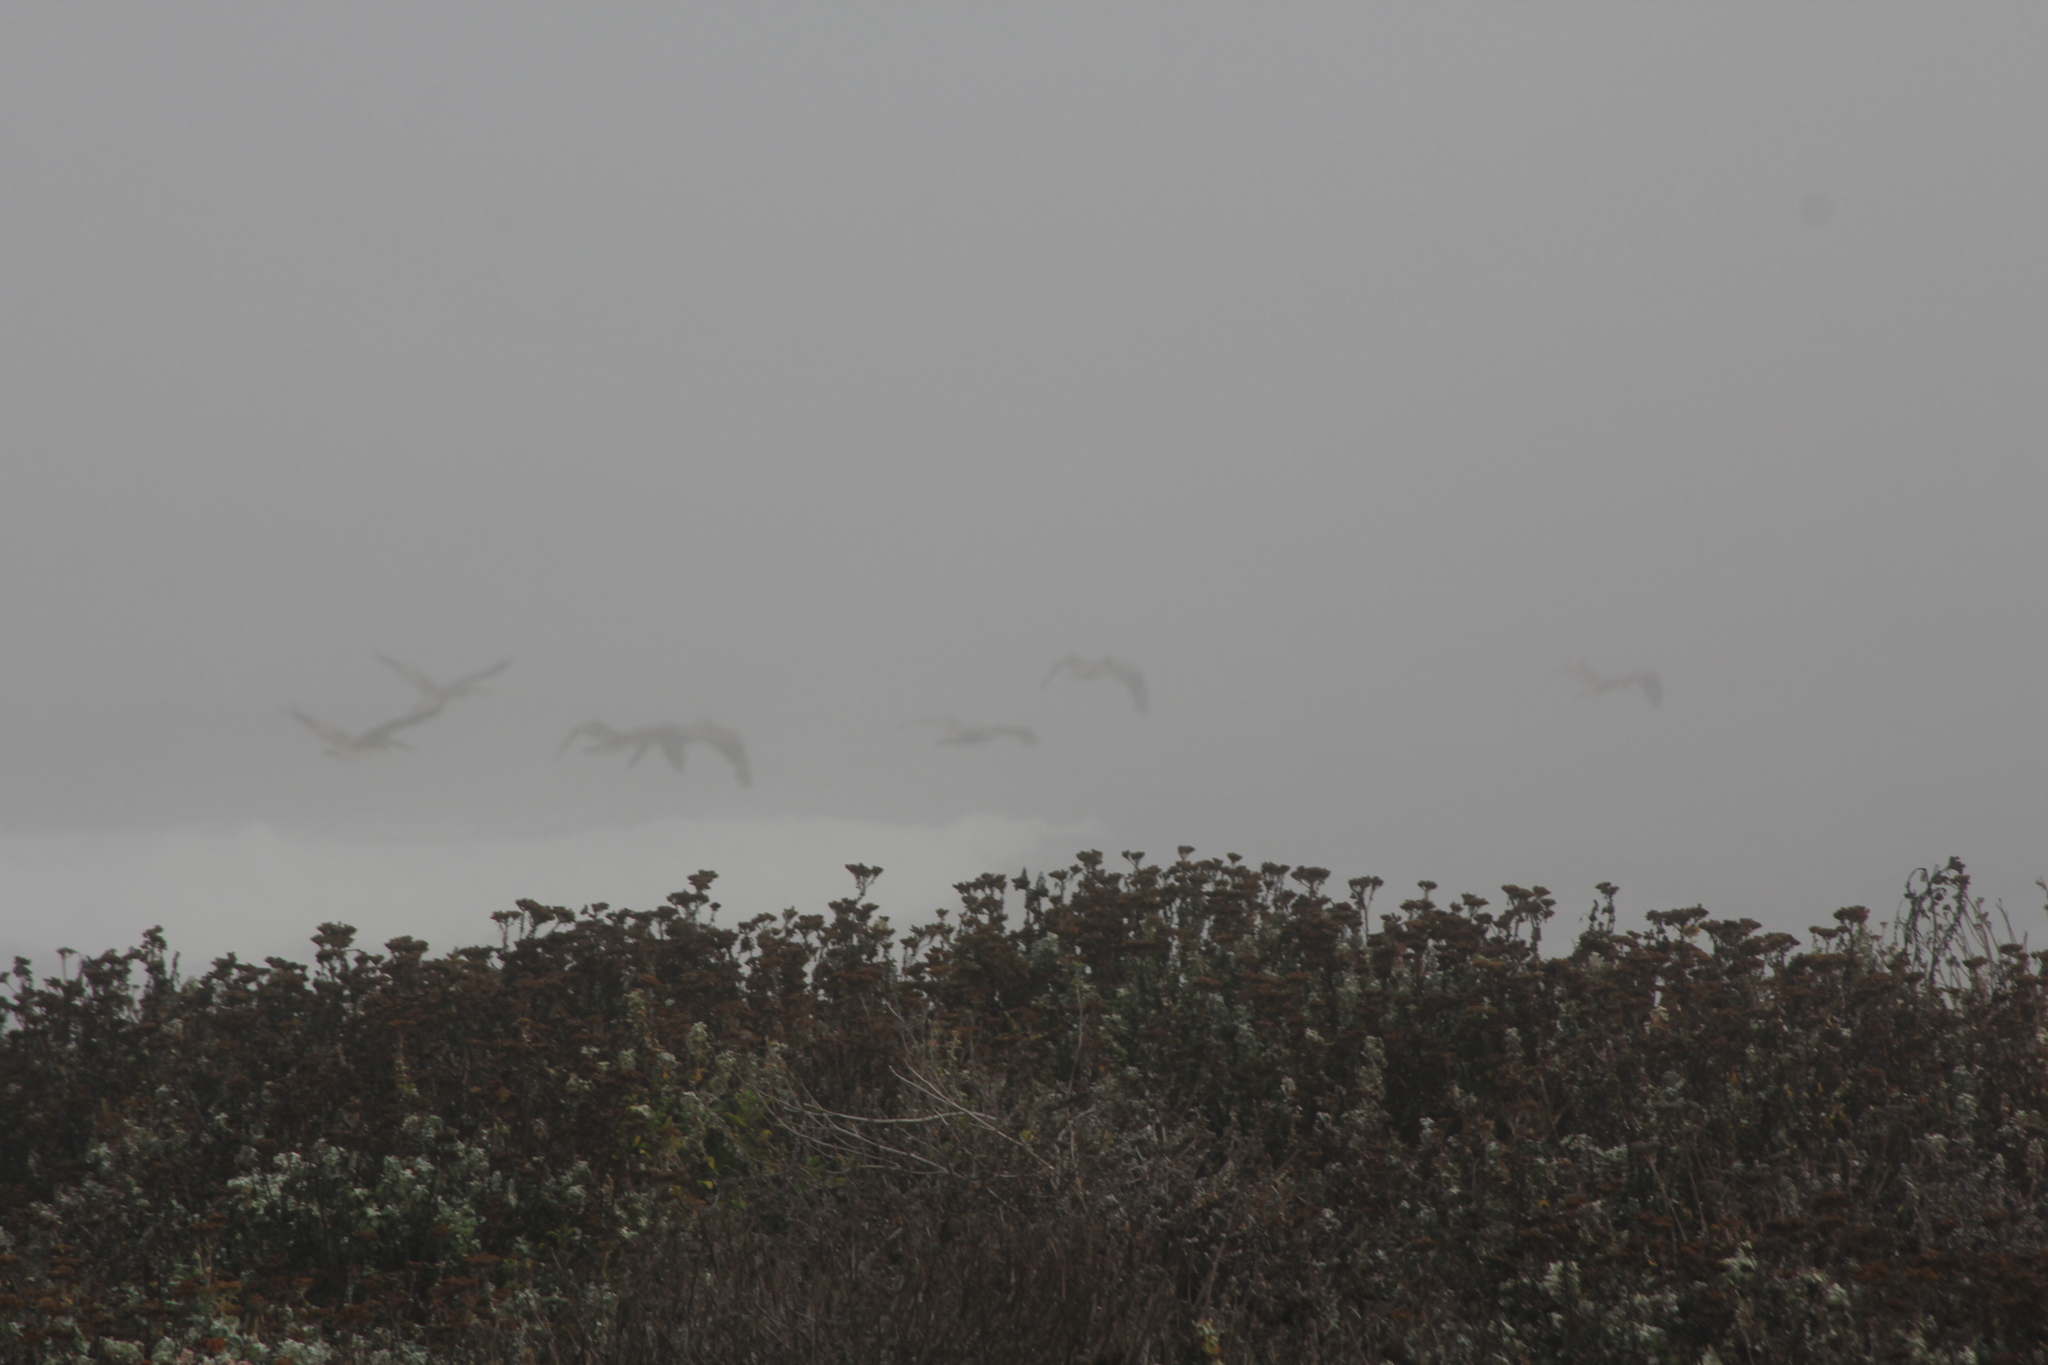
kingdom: Animalia
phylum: Chordata
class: Aves
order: Pelecaniformes
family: Pelecanidae
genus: Pelecanus
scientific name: Pelecanus occidentalis
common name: Brown pelican
